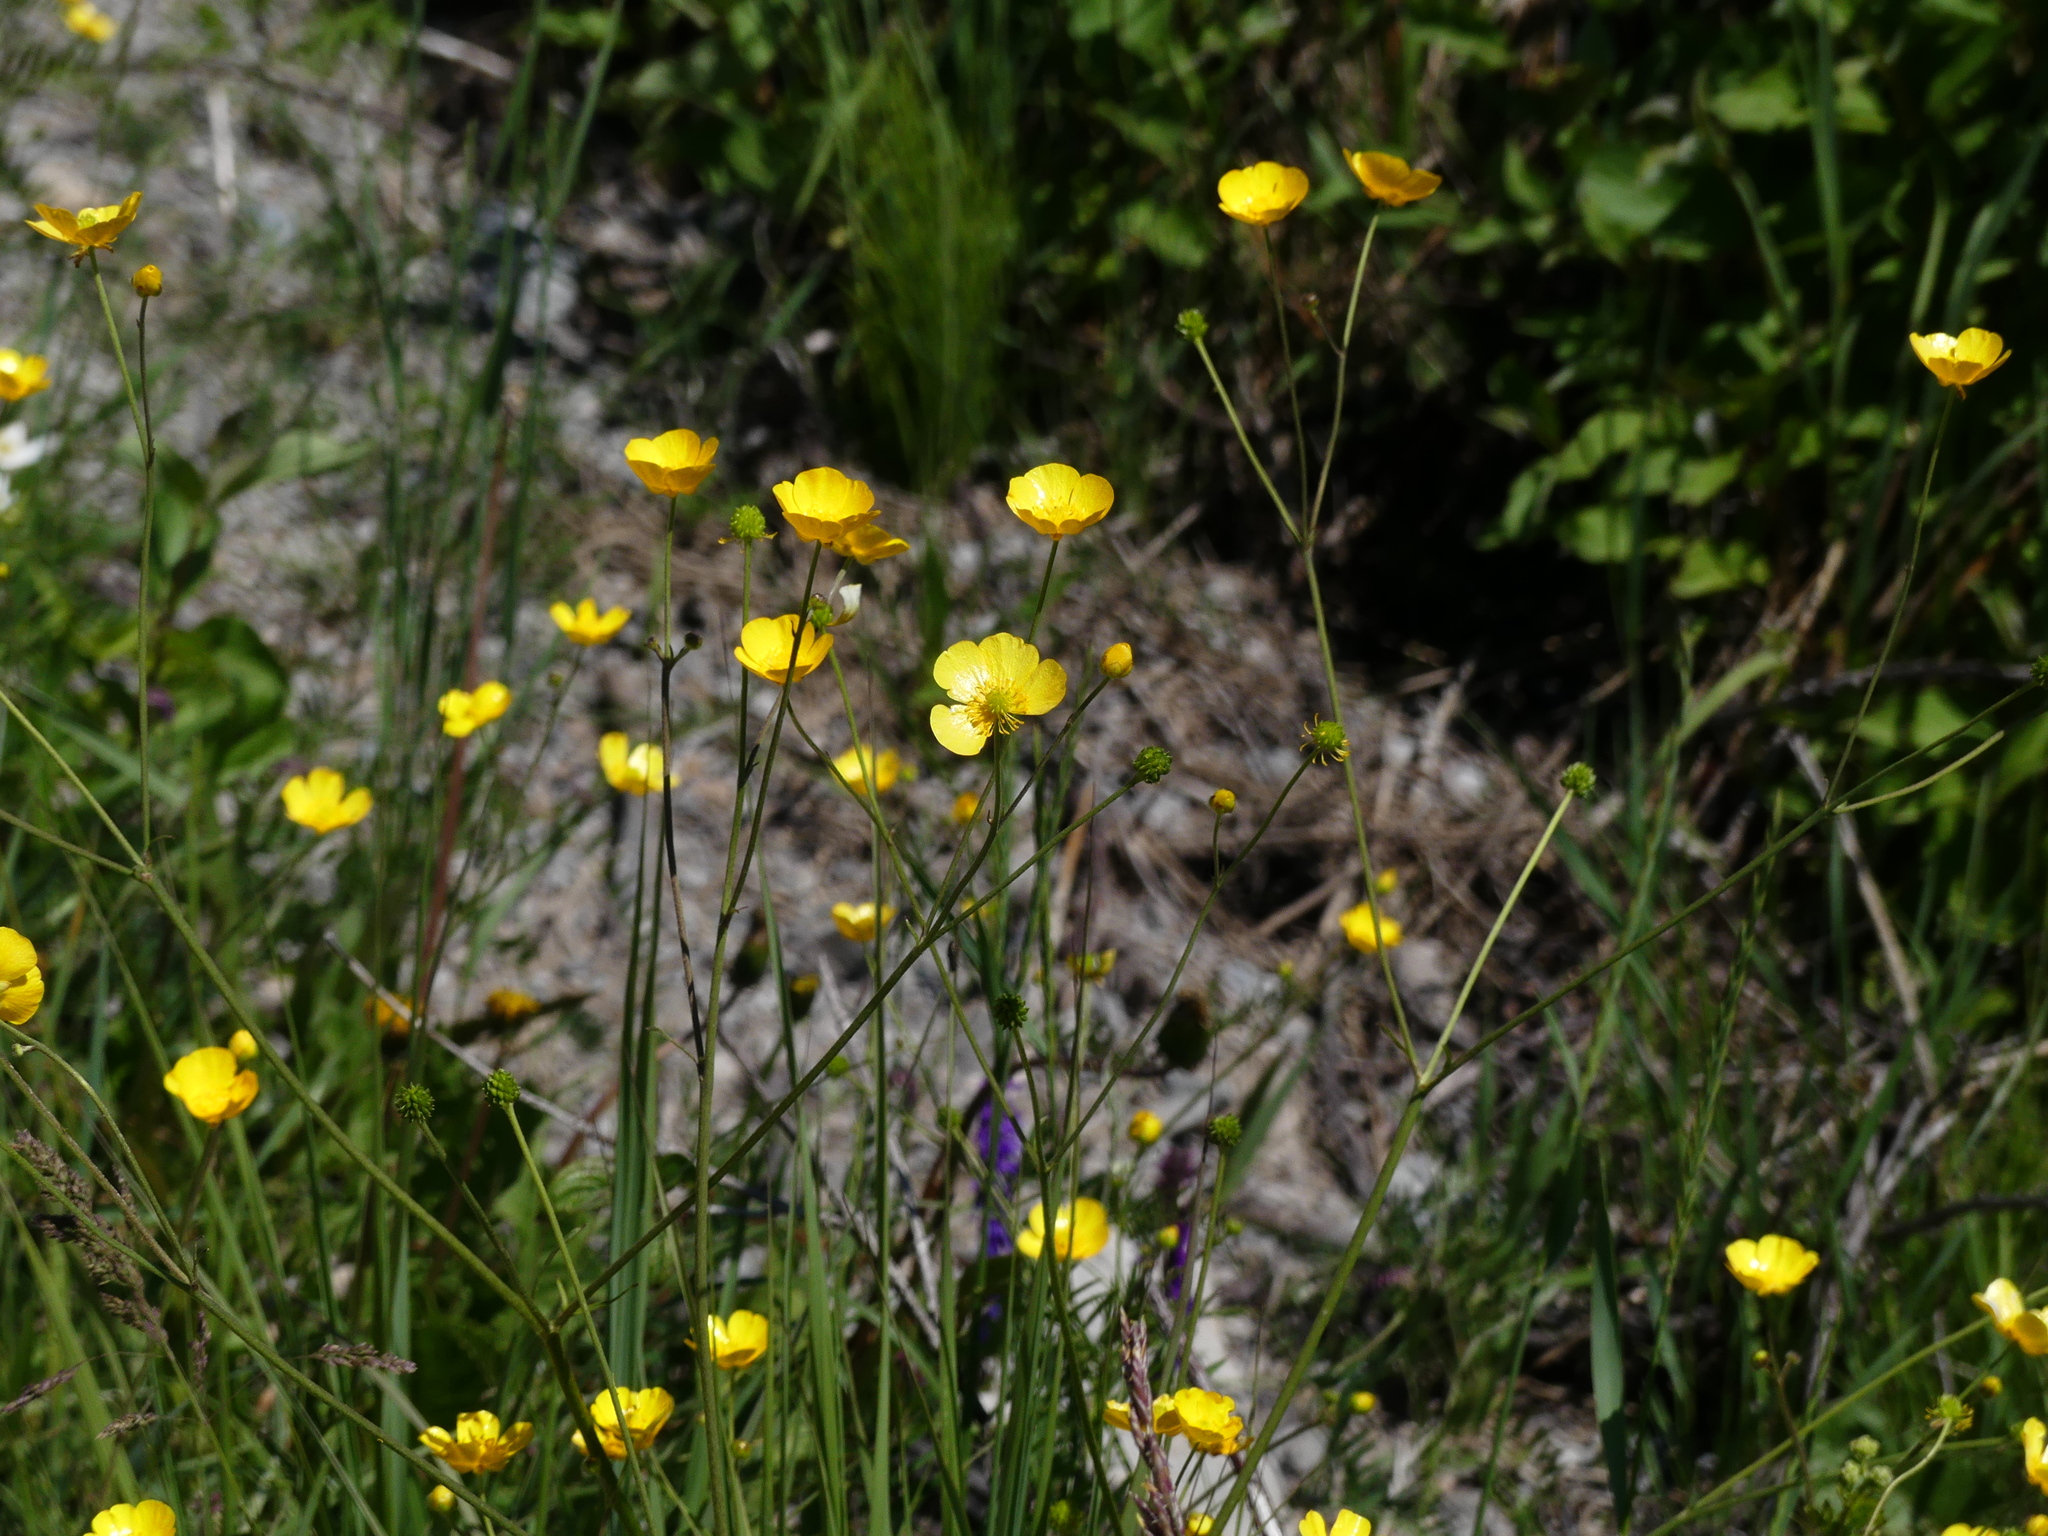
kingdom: Plantae
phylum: Tracheophyta
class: Magnoliopsida
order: Ranunculales
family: Ranunculaceae
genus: Ranunculus
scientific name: Ranunculus acris
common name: Meadow buttercup
